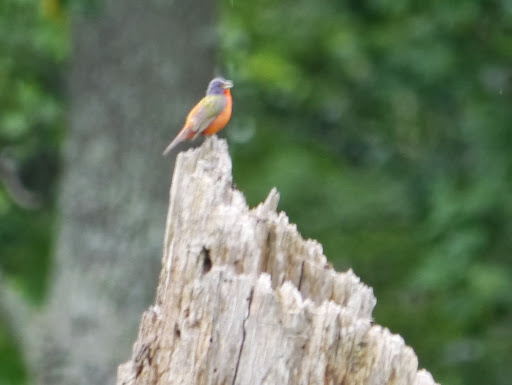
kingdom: Animalia
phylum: Chordata
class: Aves
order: Passeriformes
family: Cardinalidae
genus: Passerina
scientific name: Passerina ciris
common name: Painted bunting
